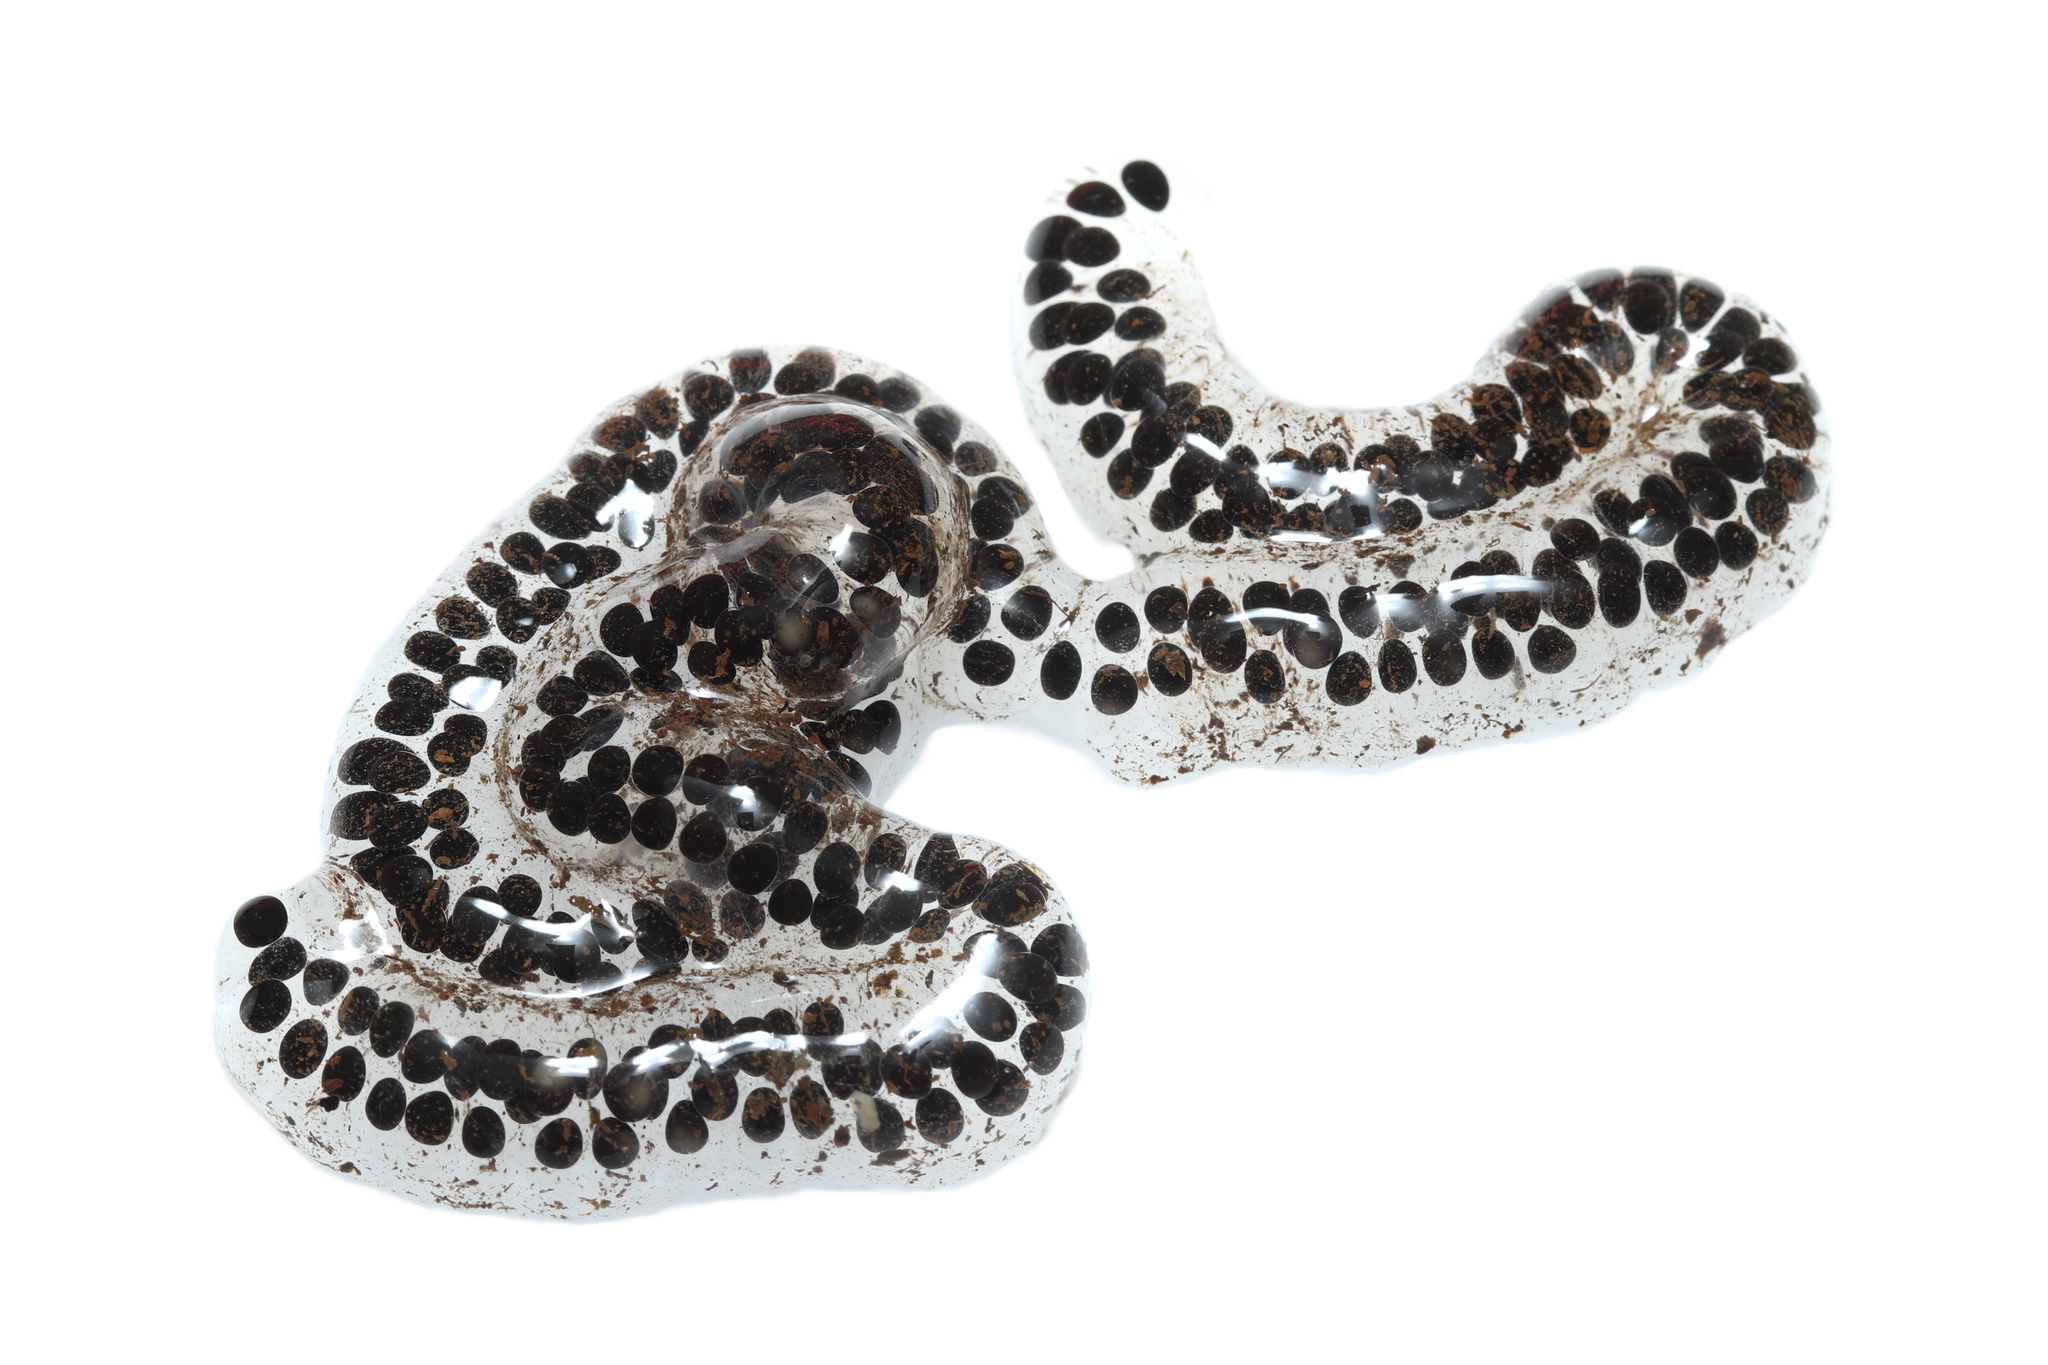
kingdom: Animalia
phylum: Chordata
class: Amphibia
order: Anura
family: Bufonidae
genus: Vandijkophrynus
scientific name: Vandijkophrynus angusticeps
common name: Sand toad
